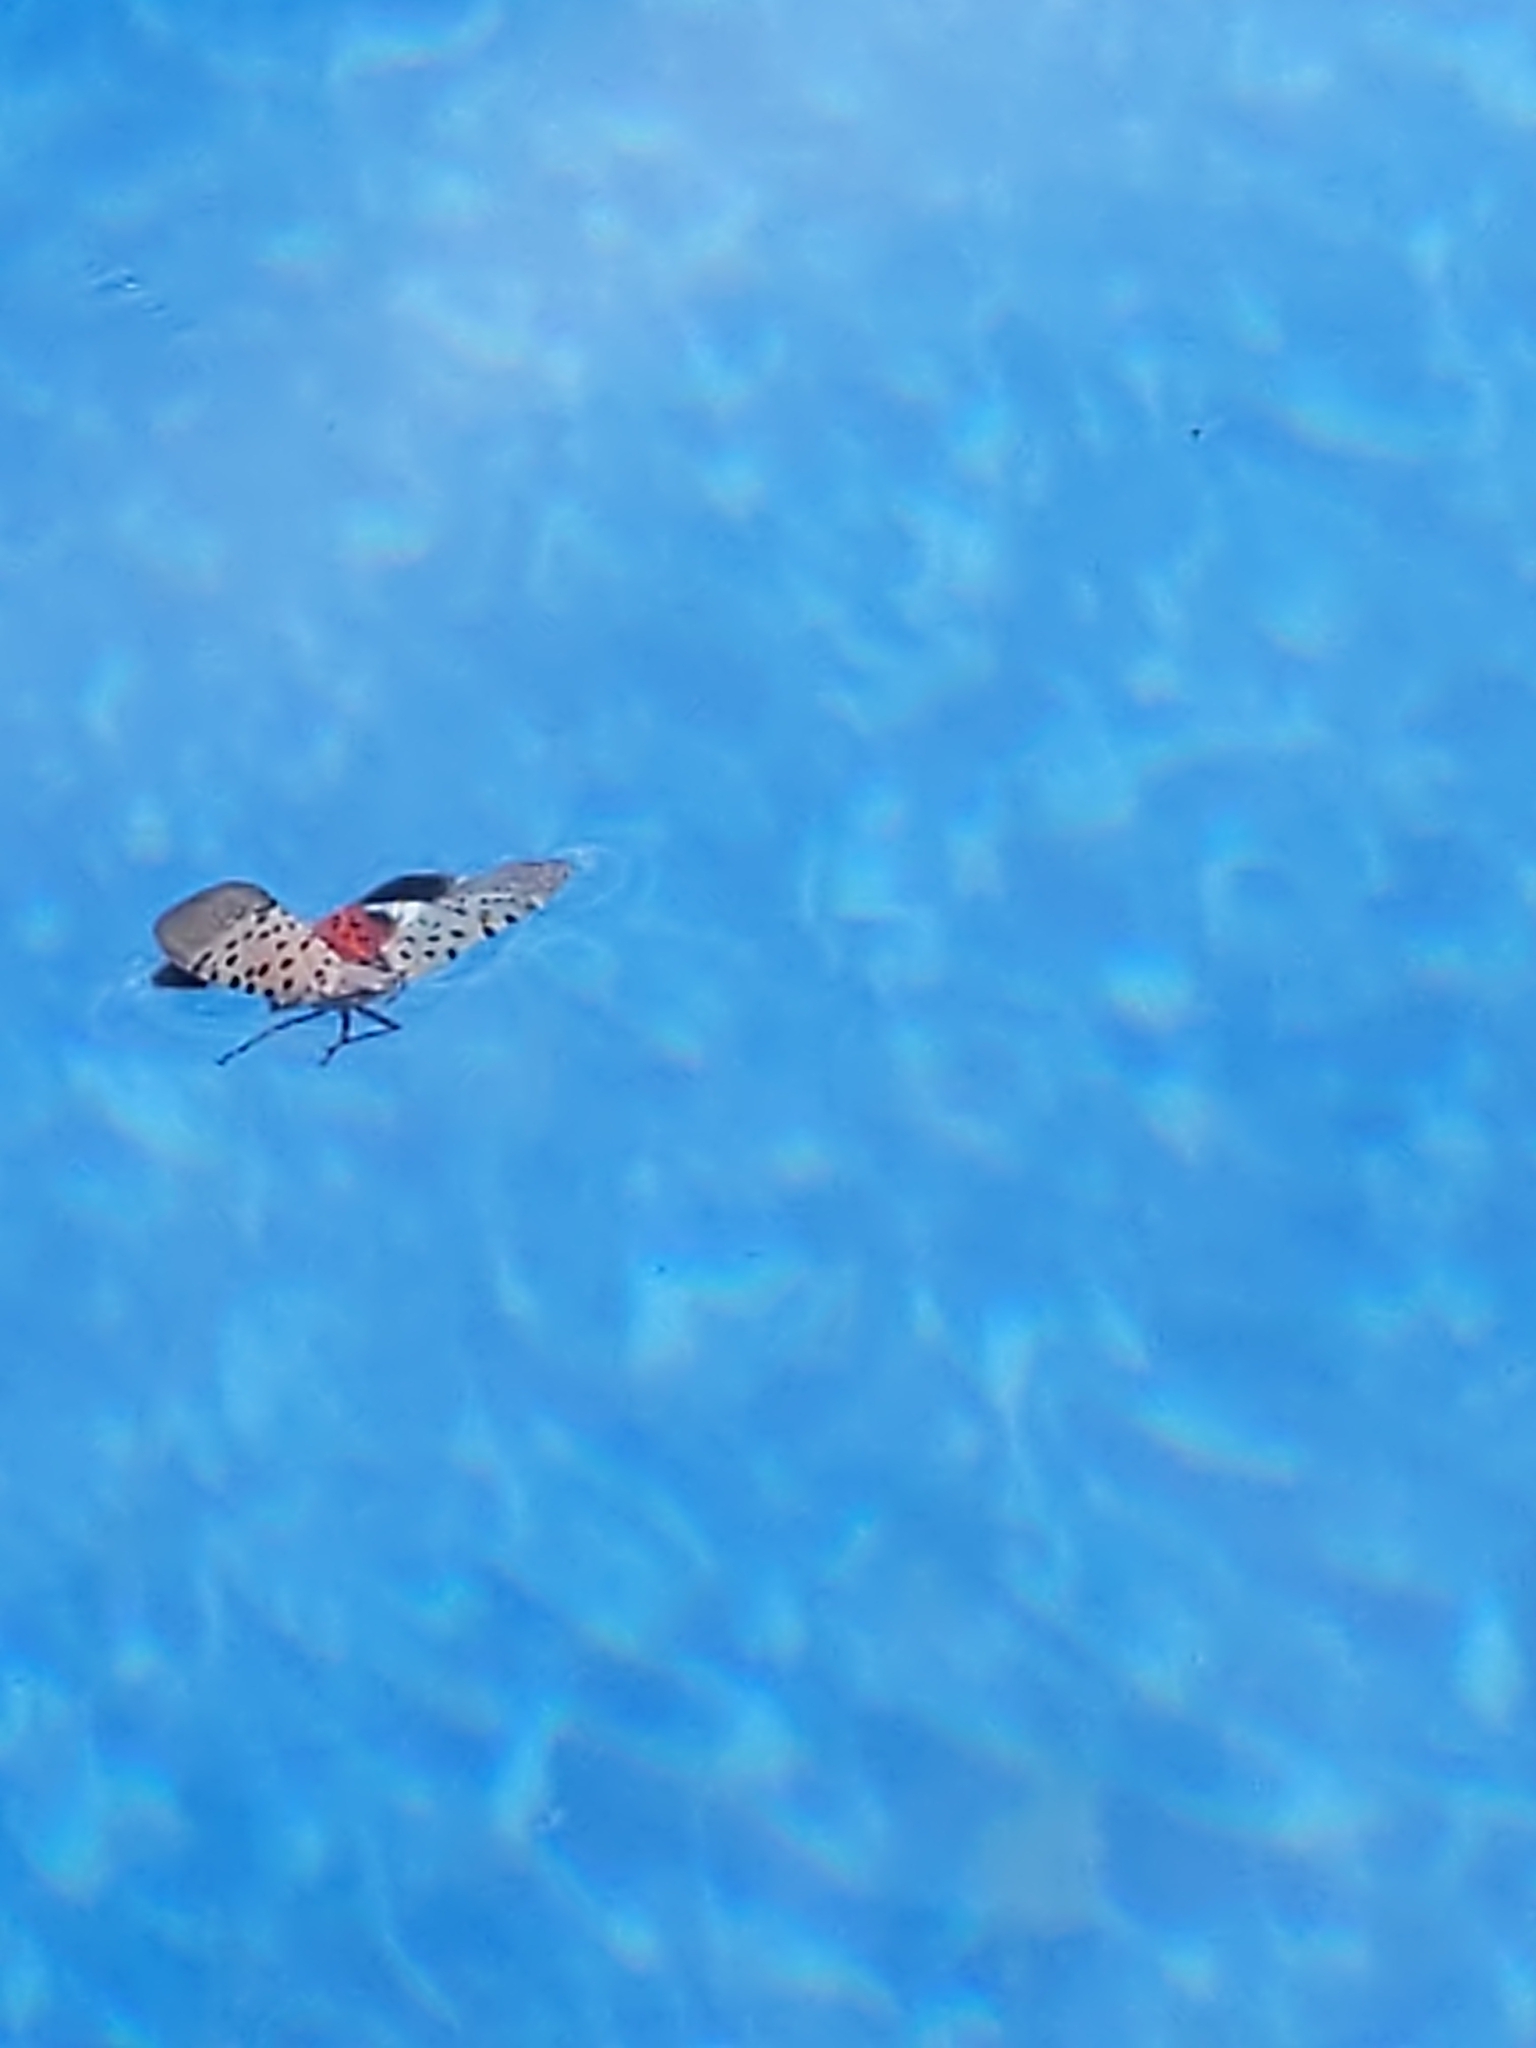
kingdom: Animalia
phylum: Arthropoda
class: Insecta
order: Hemiptera
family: Fulgoridae
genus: Lycorma
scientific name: Lycorma delicatula
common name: Spotted lanternfly
